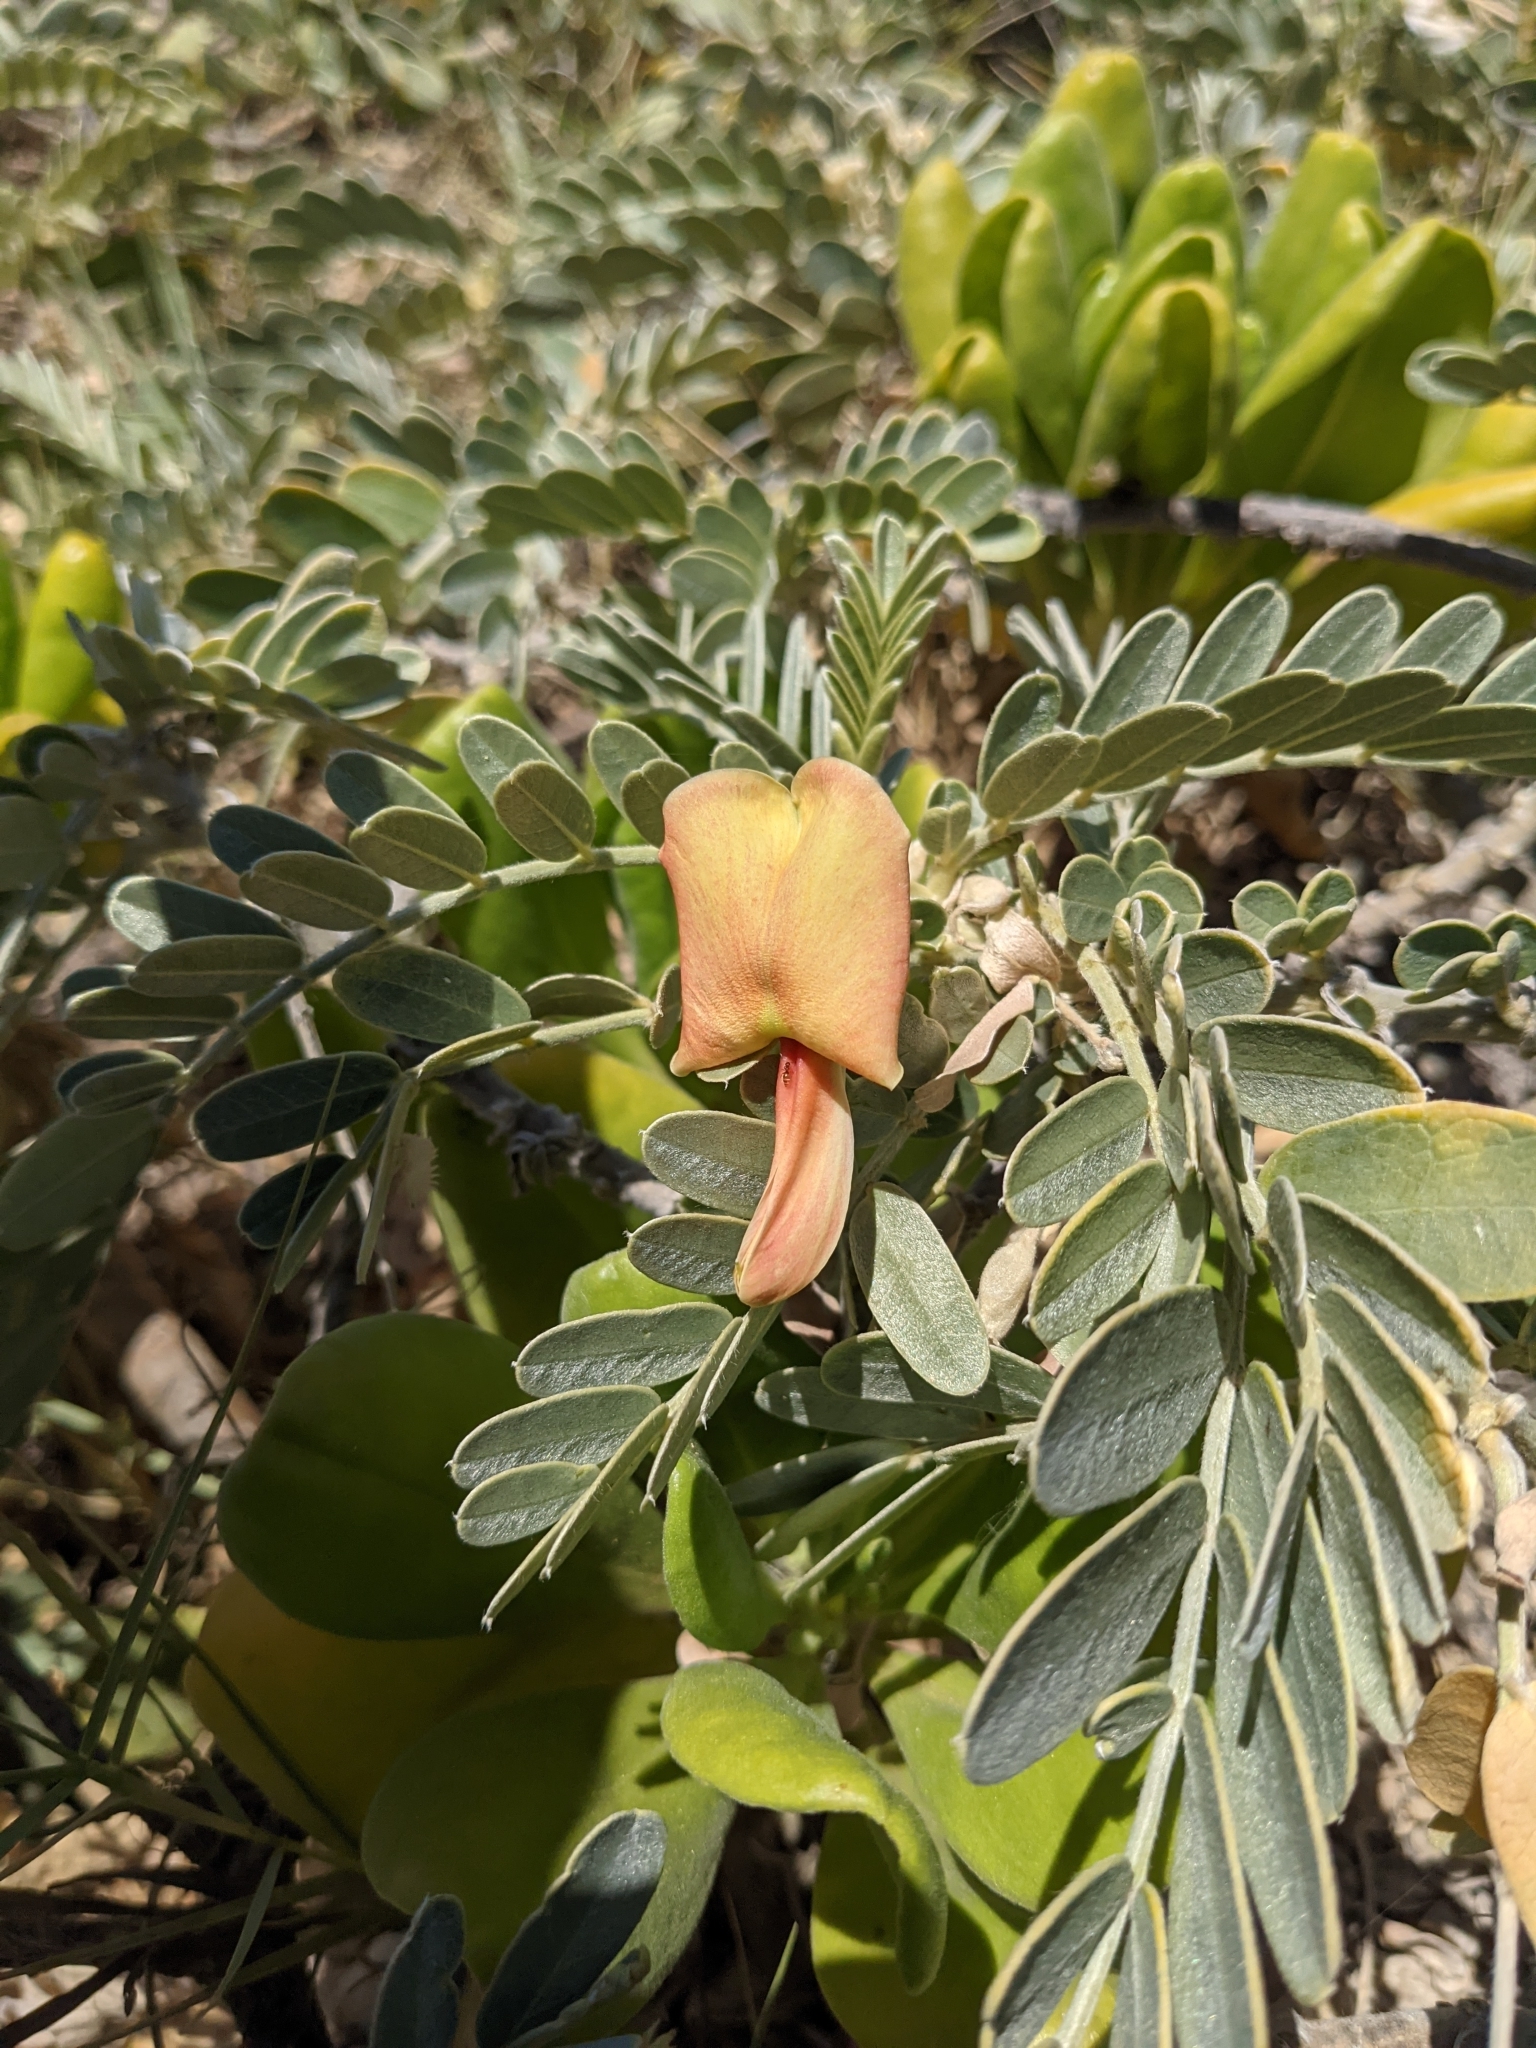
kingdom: Plantae
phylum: Tracheophyta
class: Magnoliopsida
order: Fabales
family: Fabaceae
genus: Sesbania
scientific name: Sesbania tomentosa
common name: `ohai
